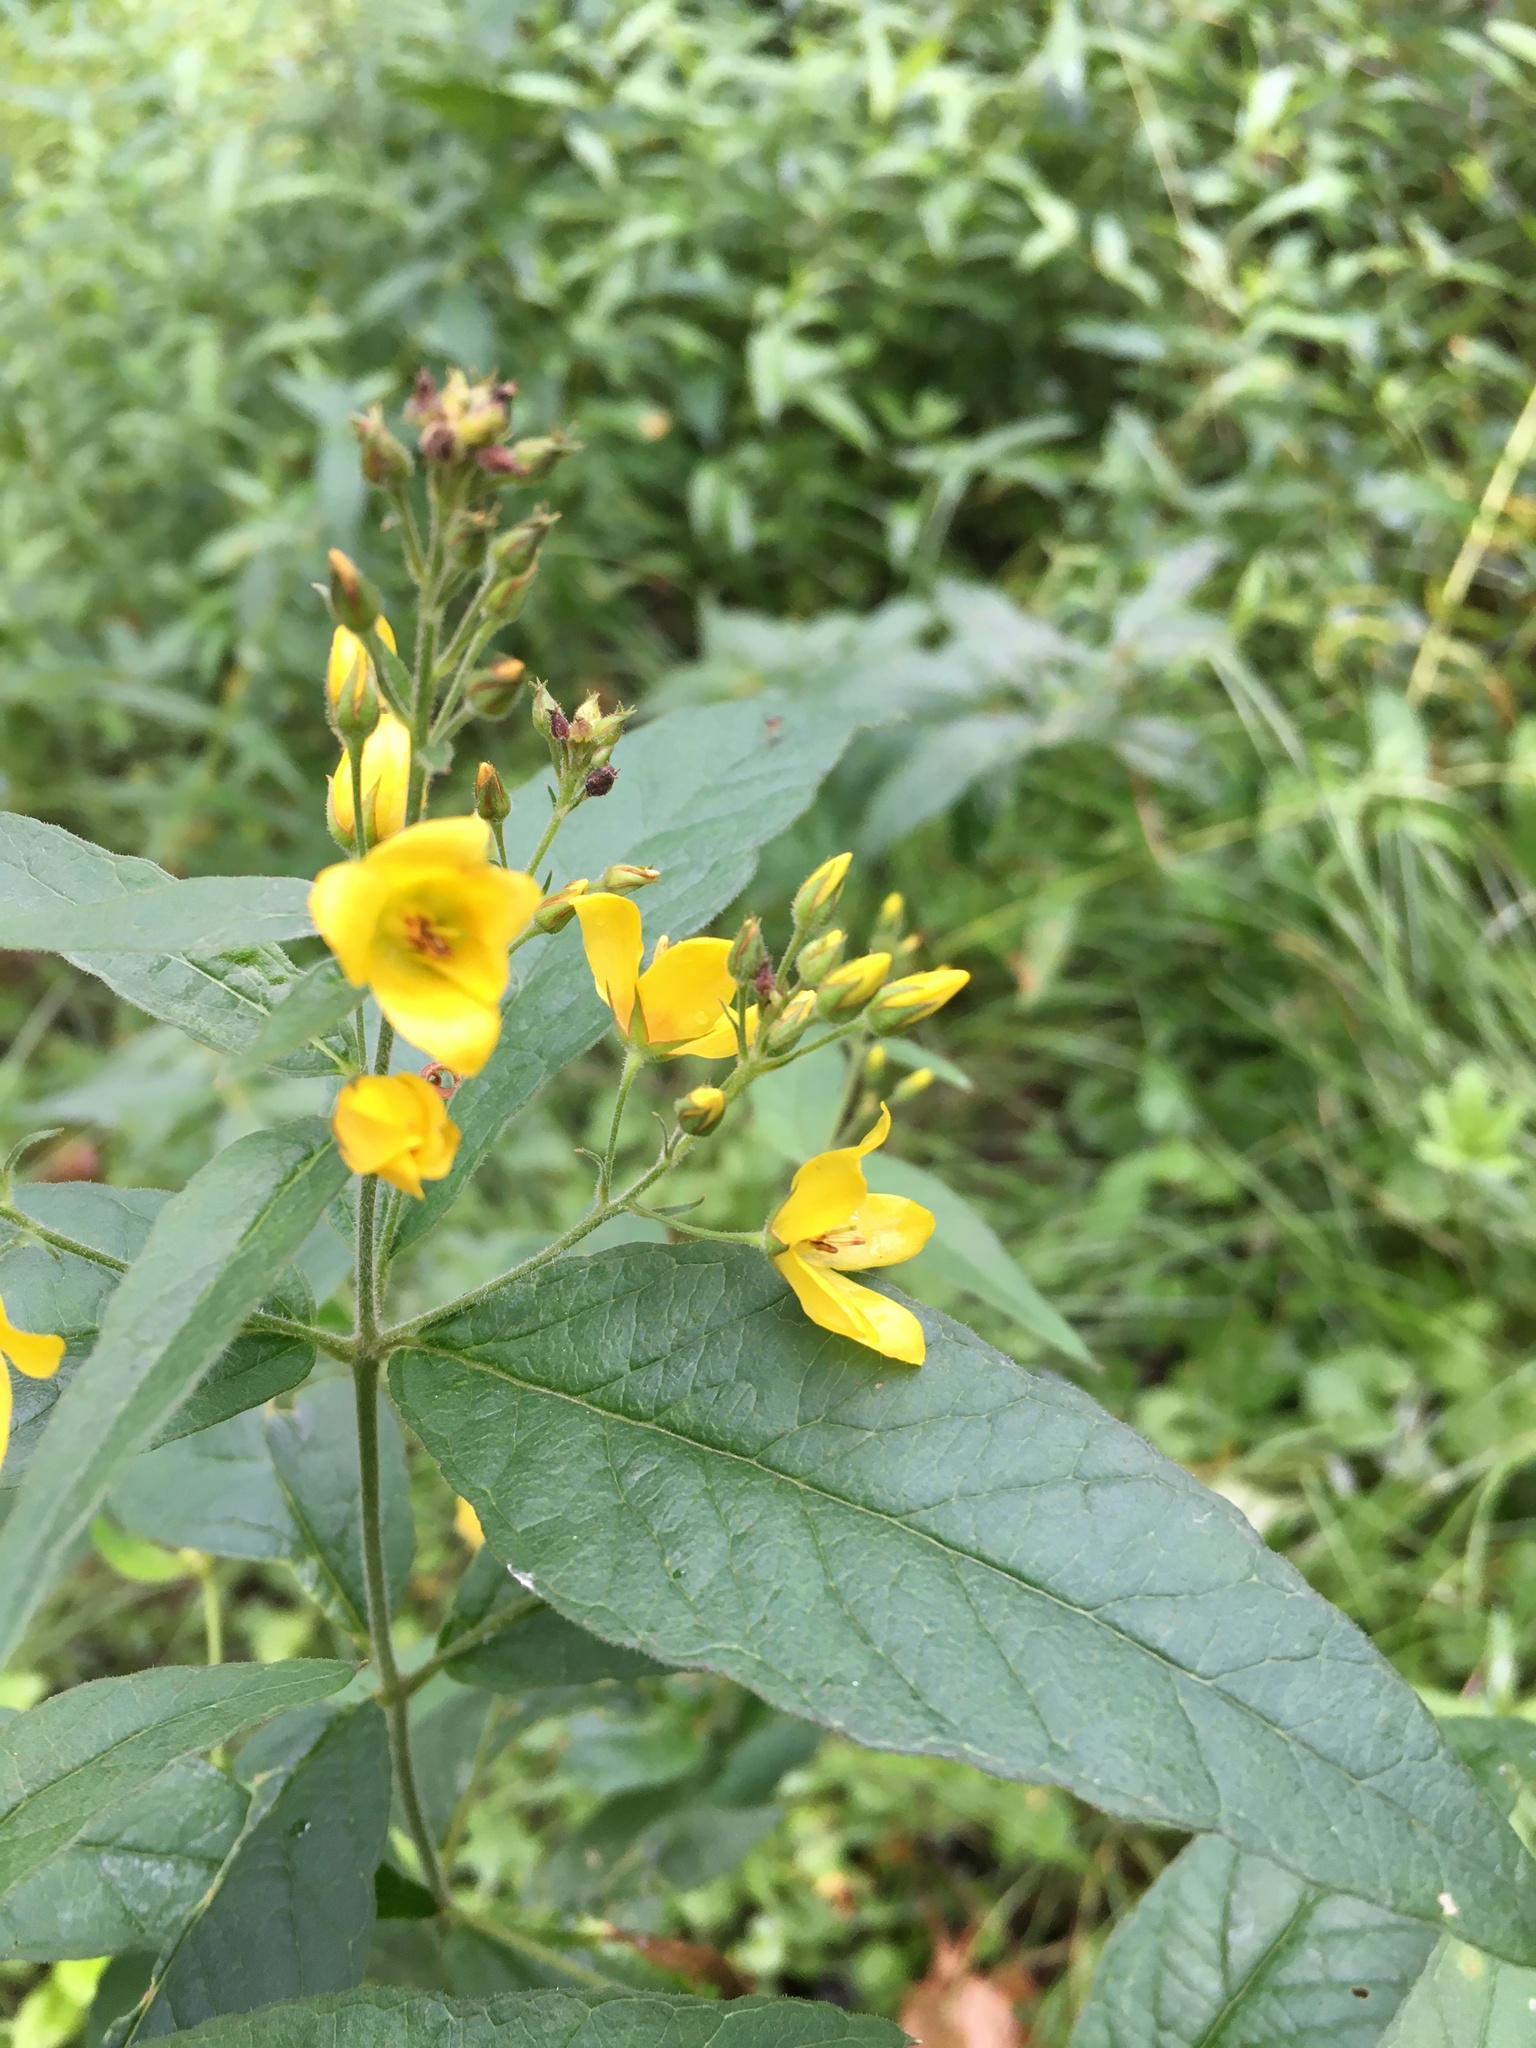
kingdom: Plantae
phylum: Tracheophyta
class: Magnoliopsida
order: Ericales
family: Primulaceae
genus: Lysimachia
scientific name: Lysimachia vulgaris
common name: Yellow loosestrife
